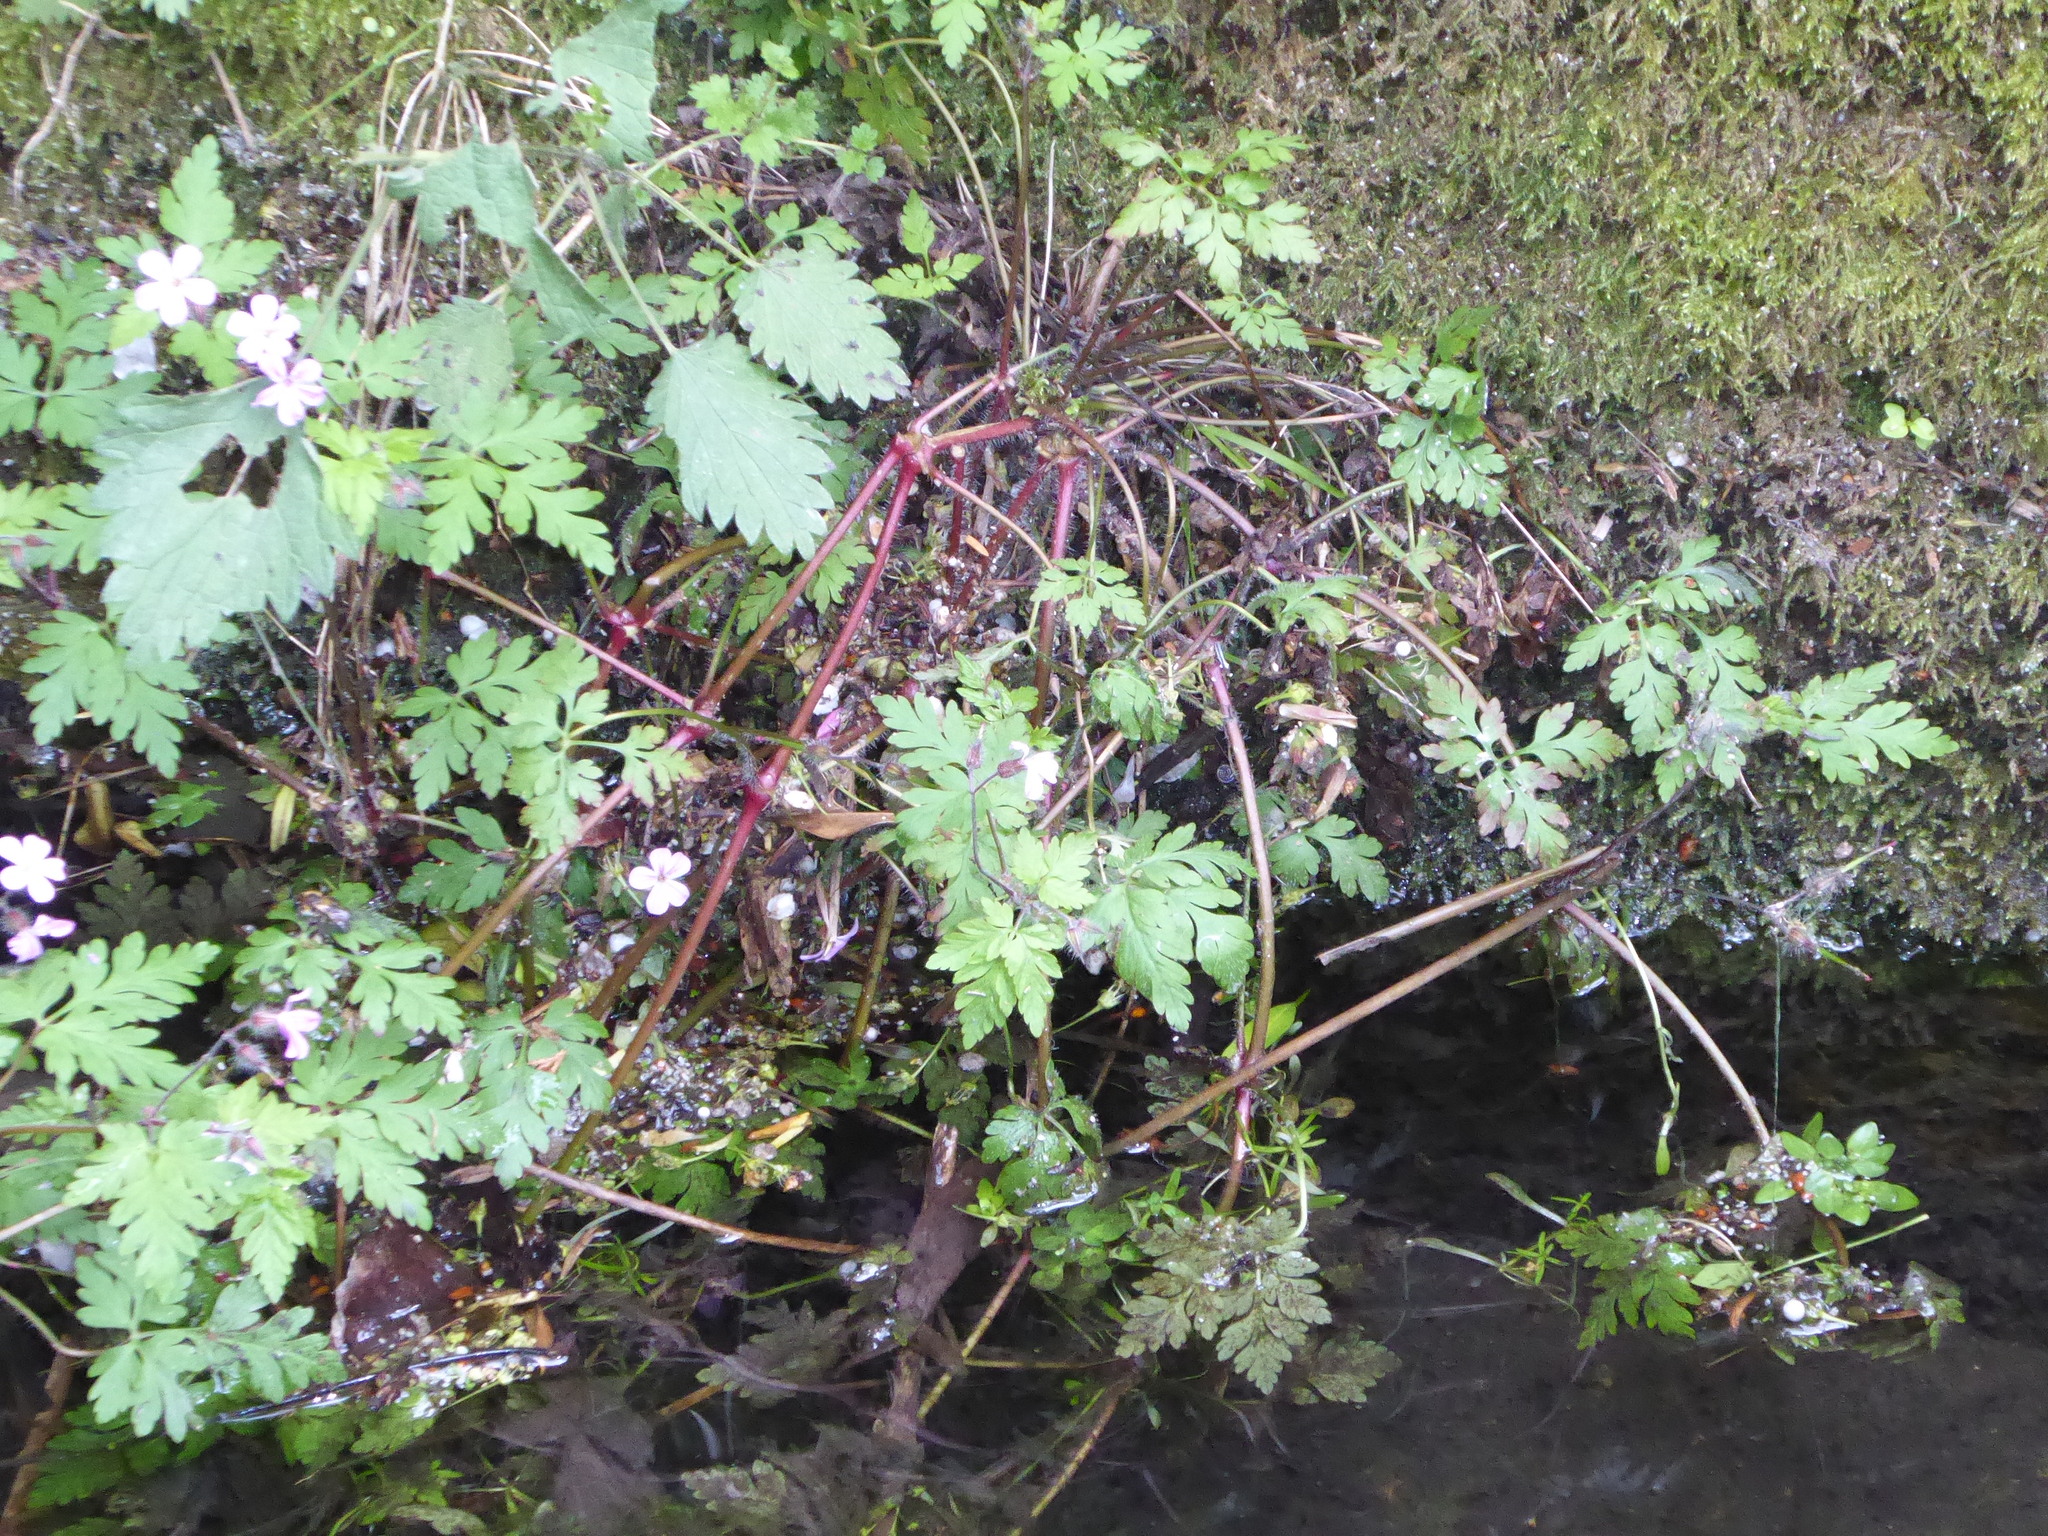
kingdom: Plantae
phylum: Tracheophyta
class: Magnoliopsida
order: Geraniales
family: Geraniaceae
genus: Geranium
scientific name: Geranium robertianum
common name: Herb-robert
